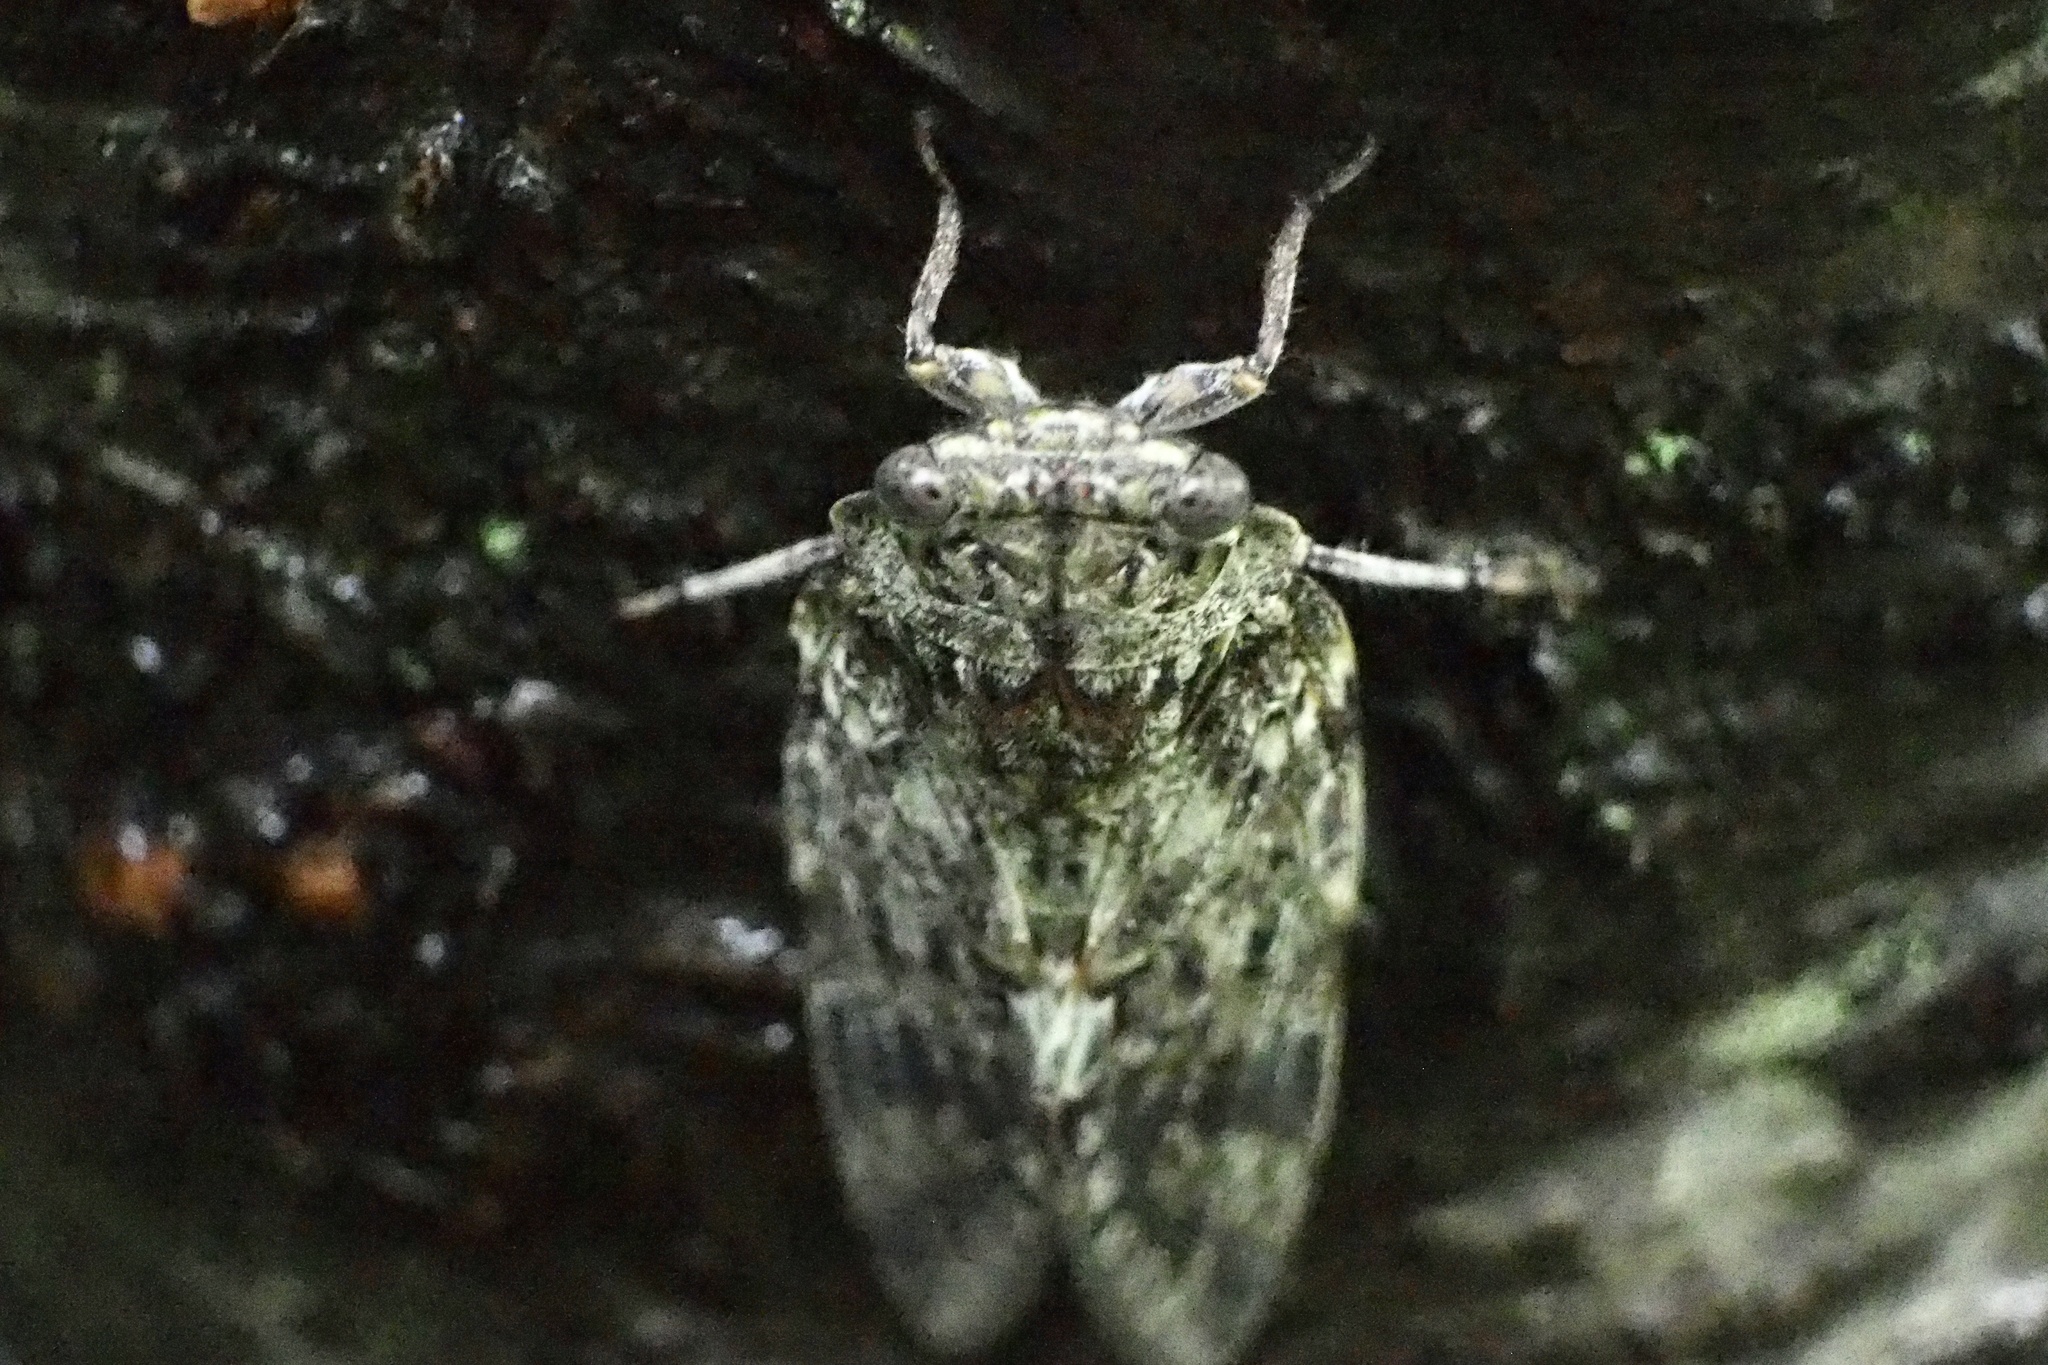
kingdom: Animalia
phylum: Arthropoda
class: Insecta
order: Hemiptera
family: Cicadidae
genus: Platypleura
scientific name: Platypleura kaempferi
